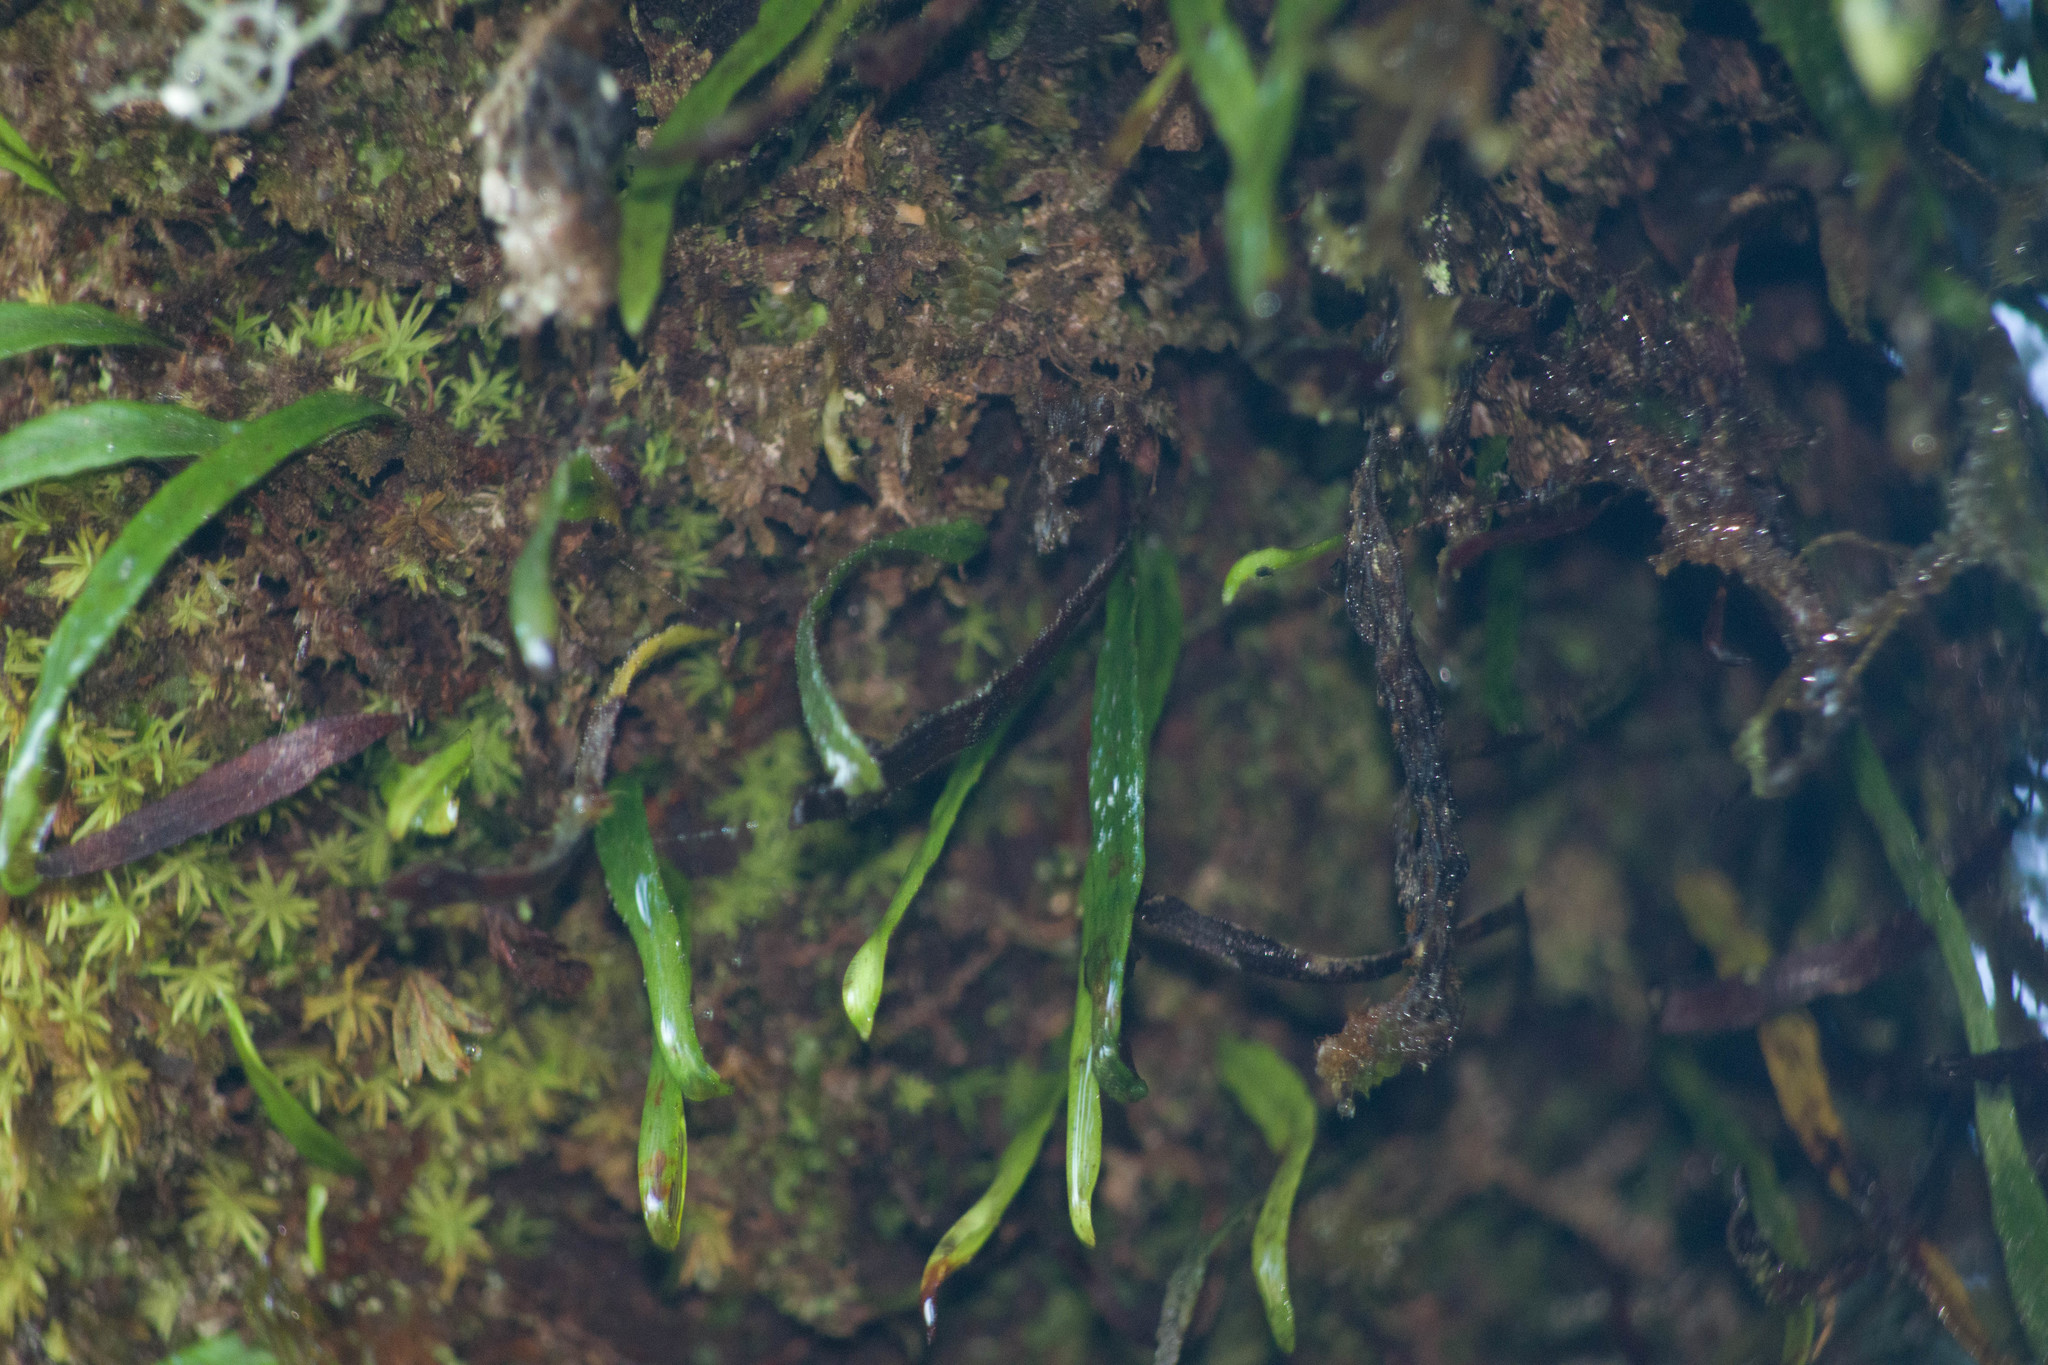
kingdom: Plantae
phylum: Tracheophyta
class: Polypodiopsida
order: Polypodiales
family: Polypodiaceae
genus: Adenophorus
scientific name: Adenophorus tenellus
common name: Kolokolo
